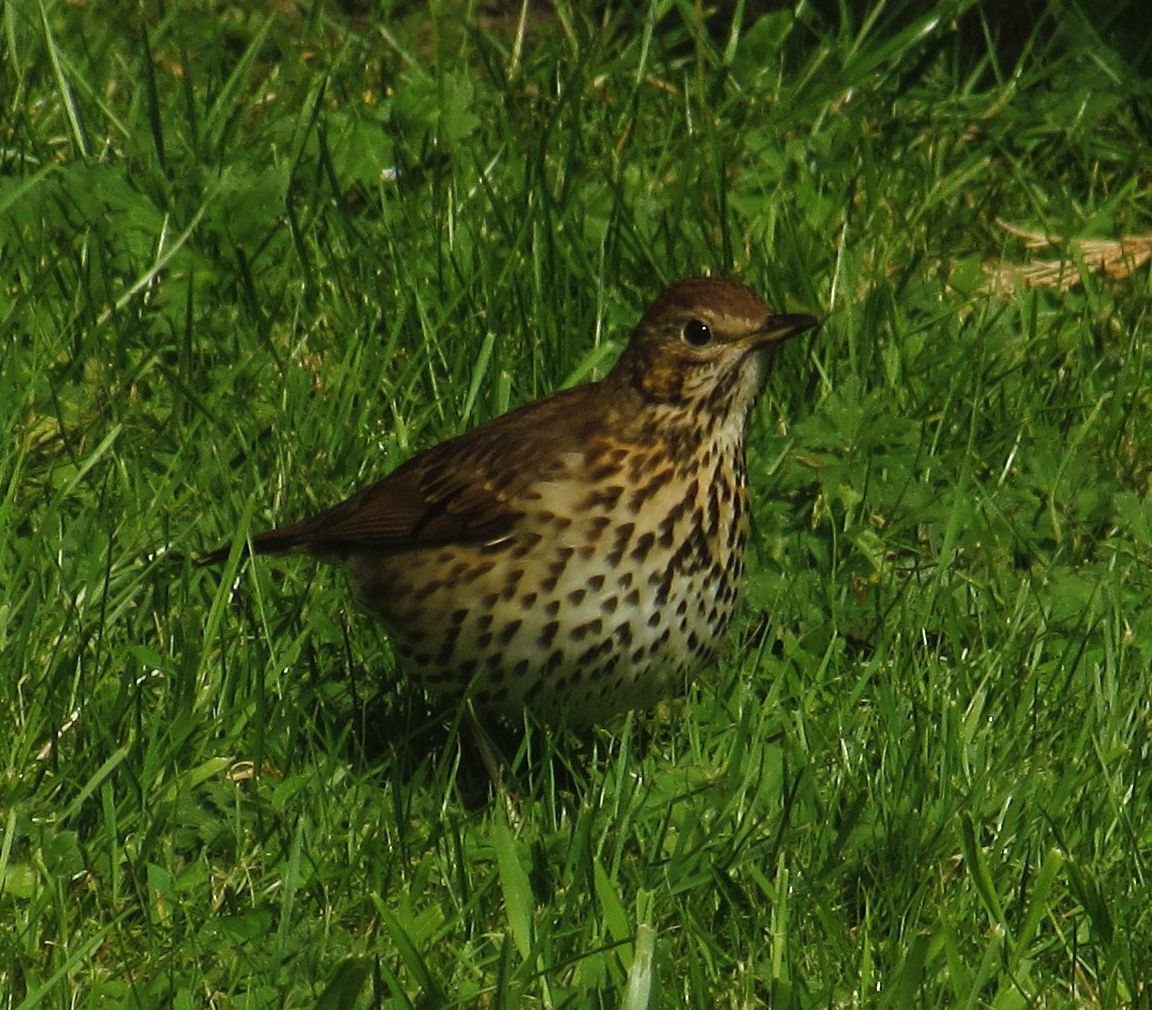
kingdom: Animalia
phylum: Chordata
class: Aves
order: Passeriformes
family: Turdidae
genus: Turdus
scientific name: Turdus philomelos
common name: Song thrush
